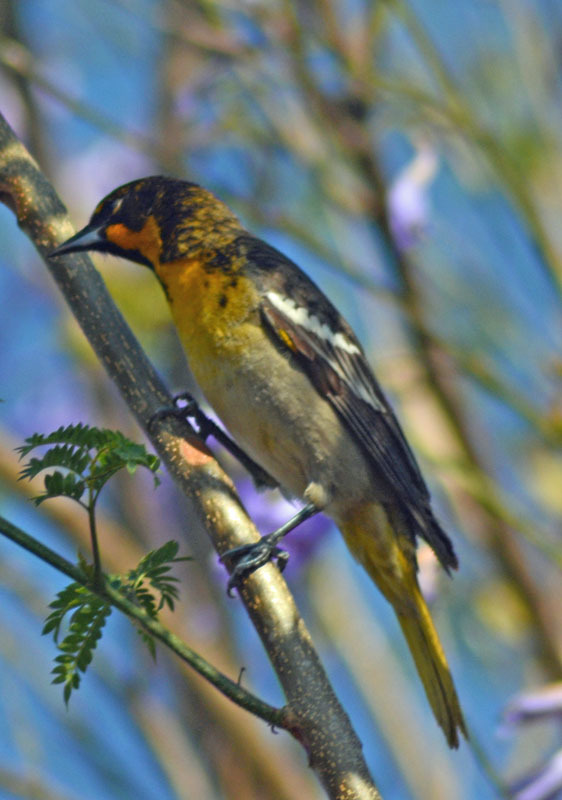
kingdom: Animalia
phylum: Chordata
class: Aves
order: Passeriformes
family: Icteridae
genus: Icterus
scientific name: Icterus abeillei
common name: Black-backed oriole
